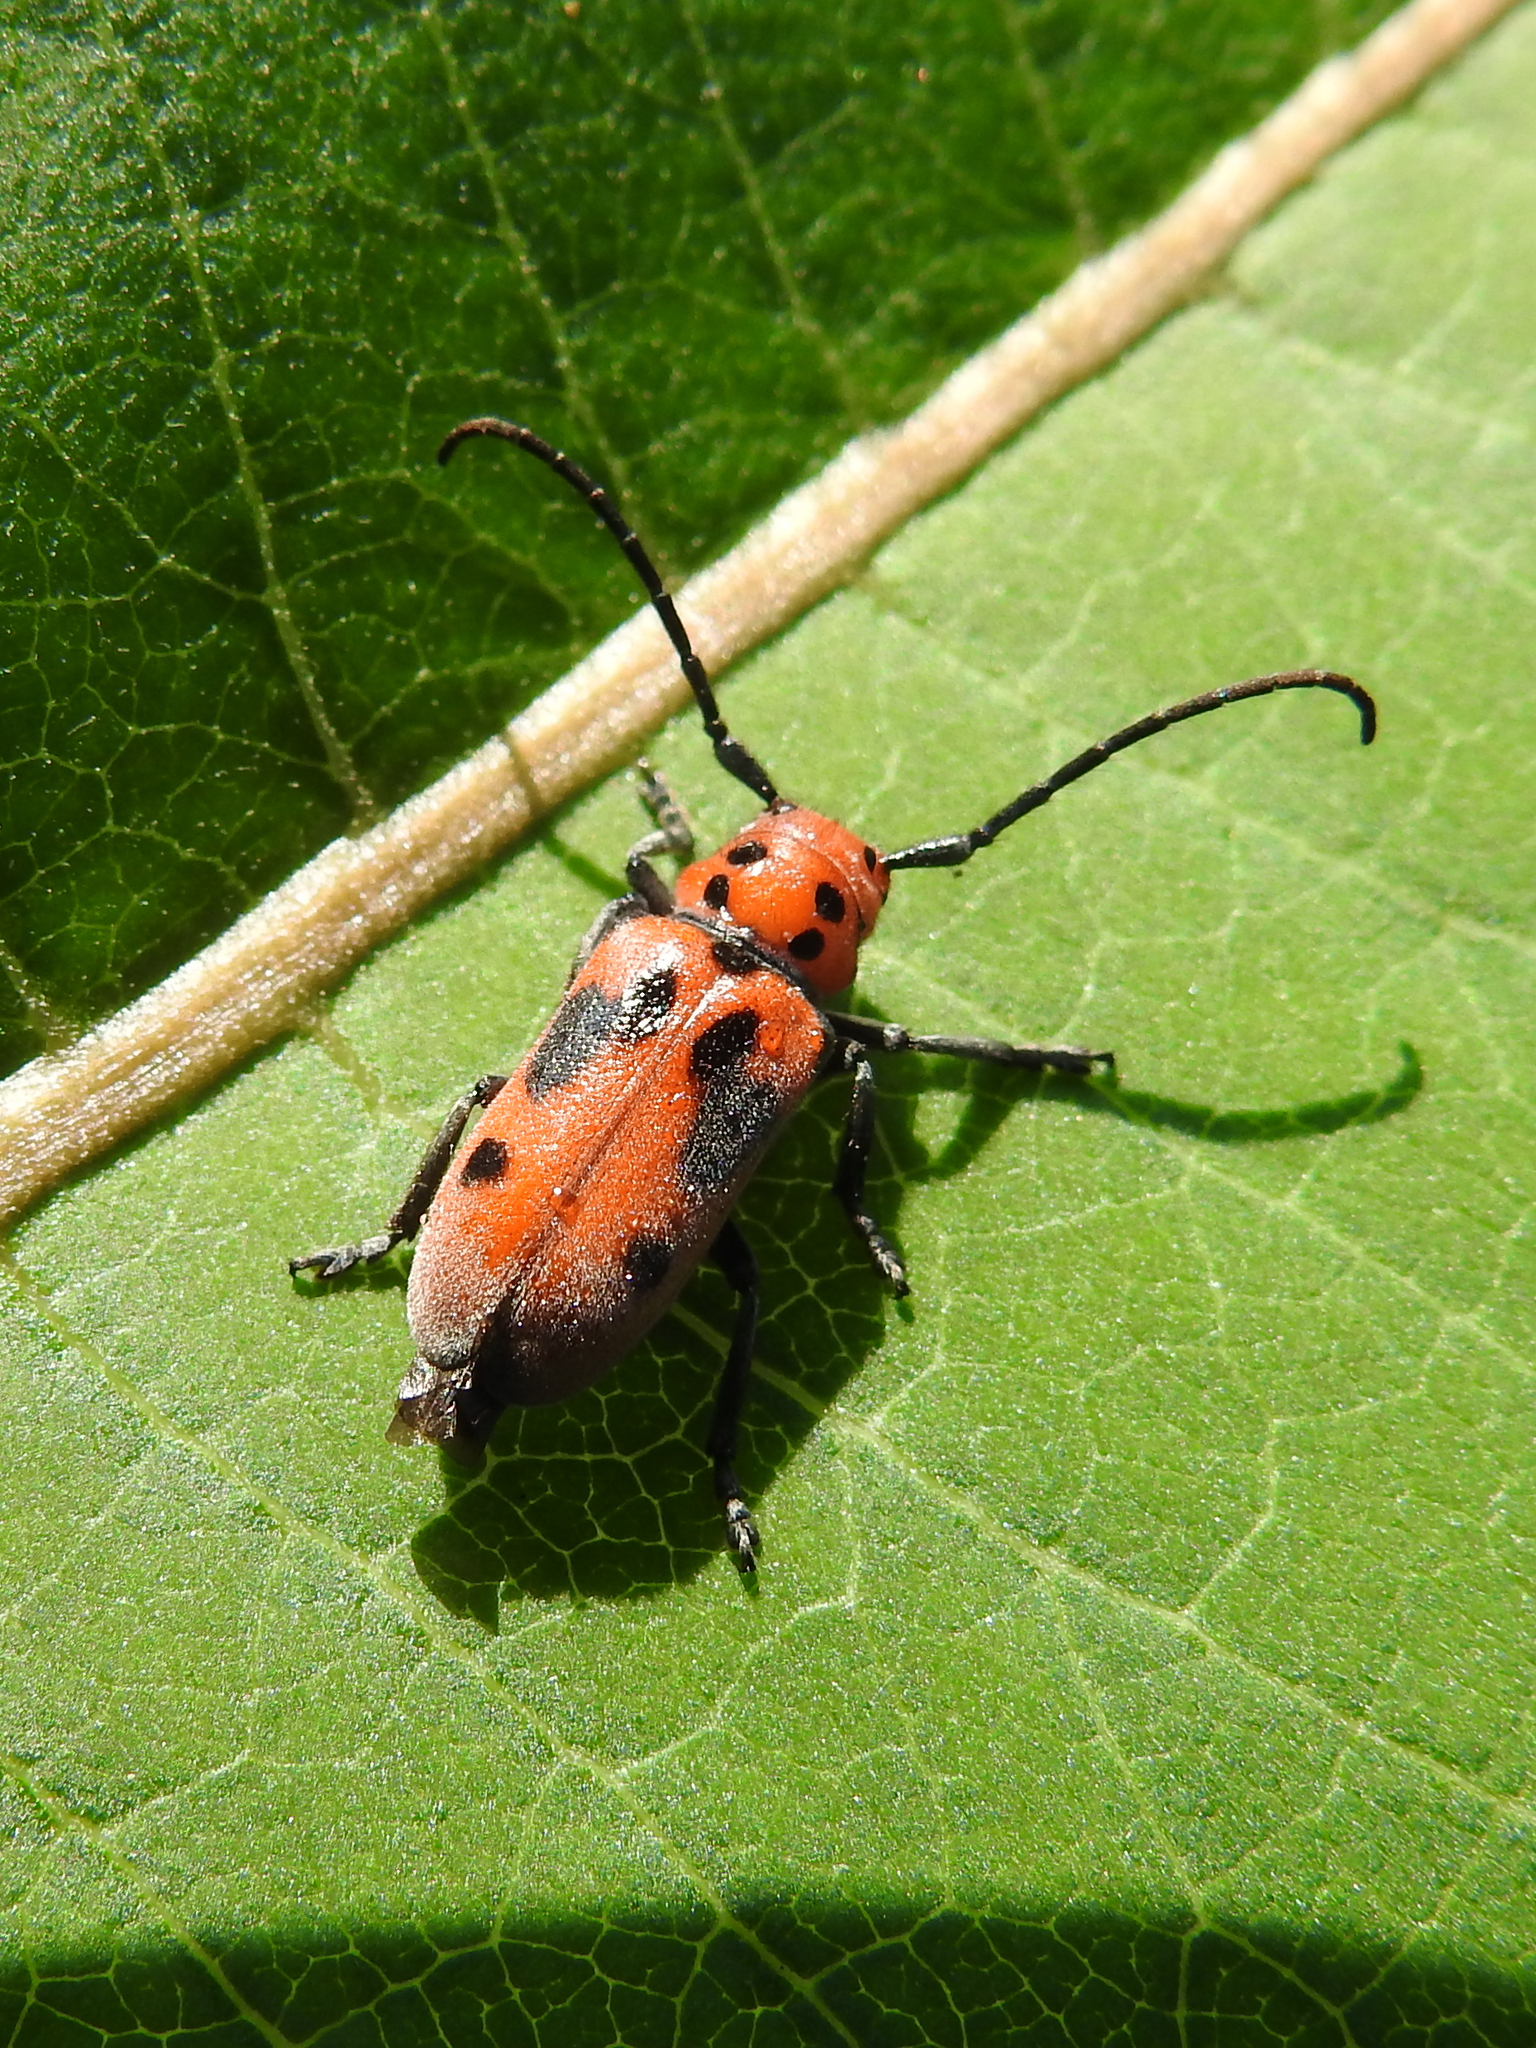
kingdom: Animalia
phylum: Arthropoda
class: Insecta
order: Coleoptera
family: Cerambycidae
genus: Tetraopes
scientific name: Tetraopes tetrophthalmus
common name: Red milkweed beetle
